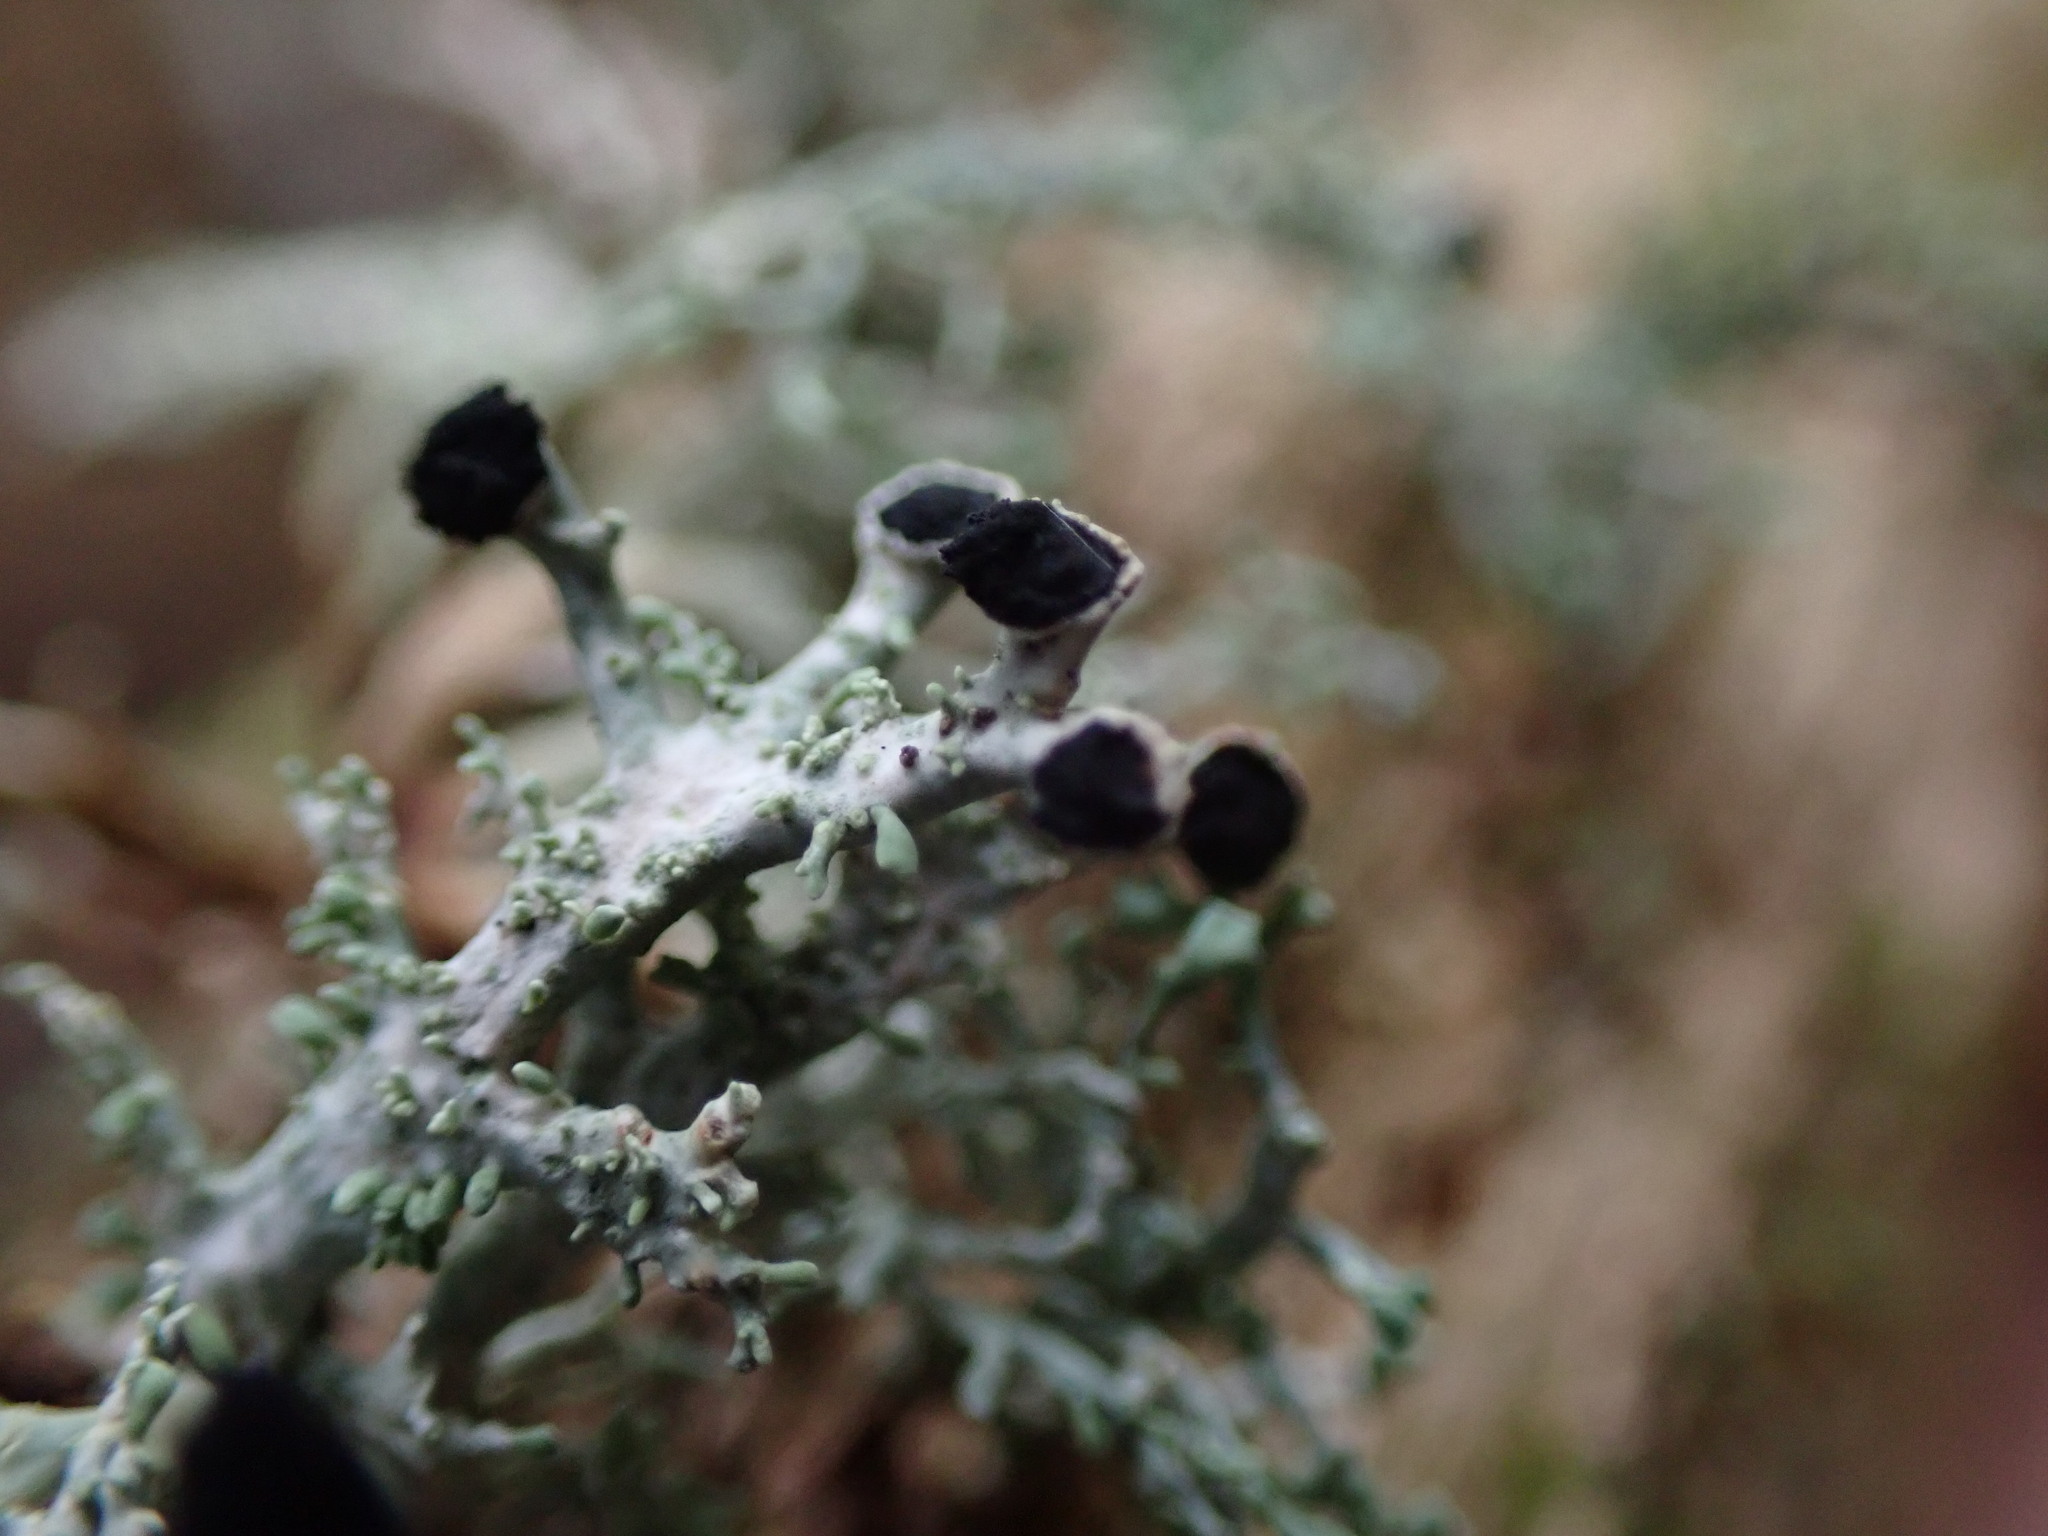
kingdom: Fungi
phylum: Ascomycota
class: Lecanoromycetes
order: Lecanorales
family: Sphaerophoraceae
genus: Bunodophoron
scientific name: Bunodophoron melanocarpum
